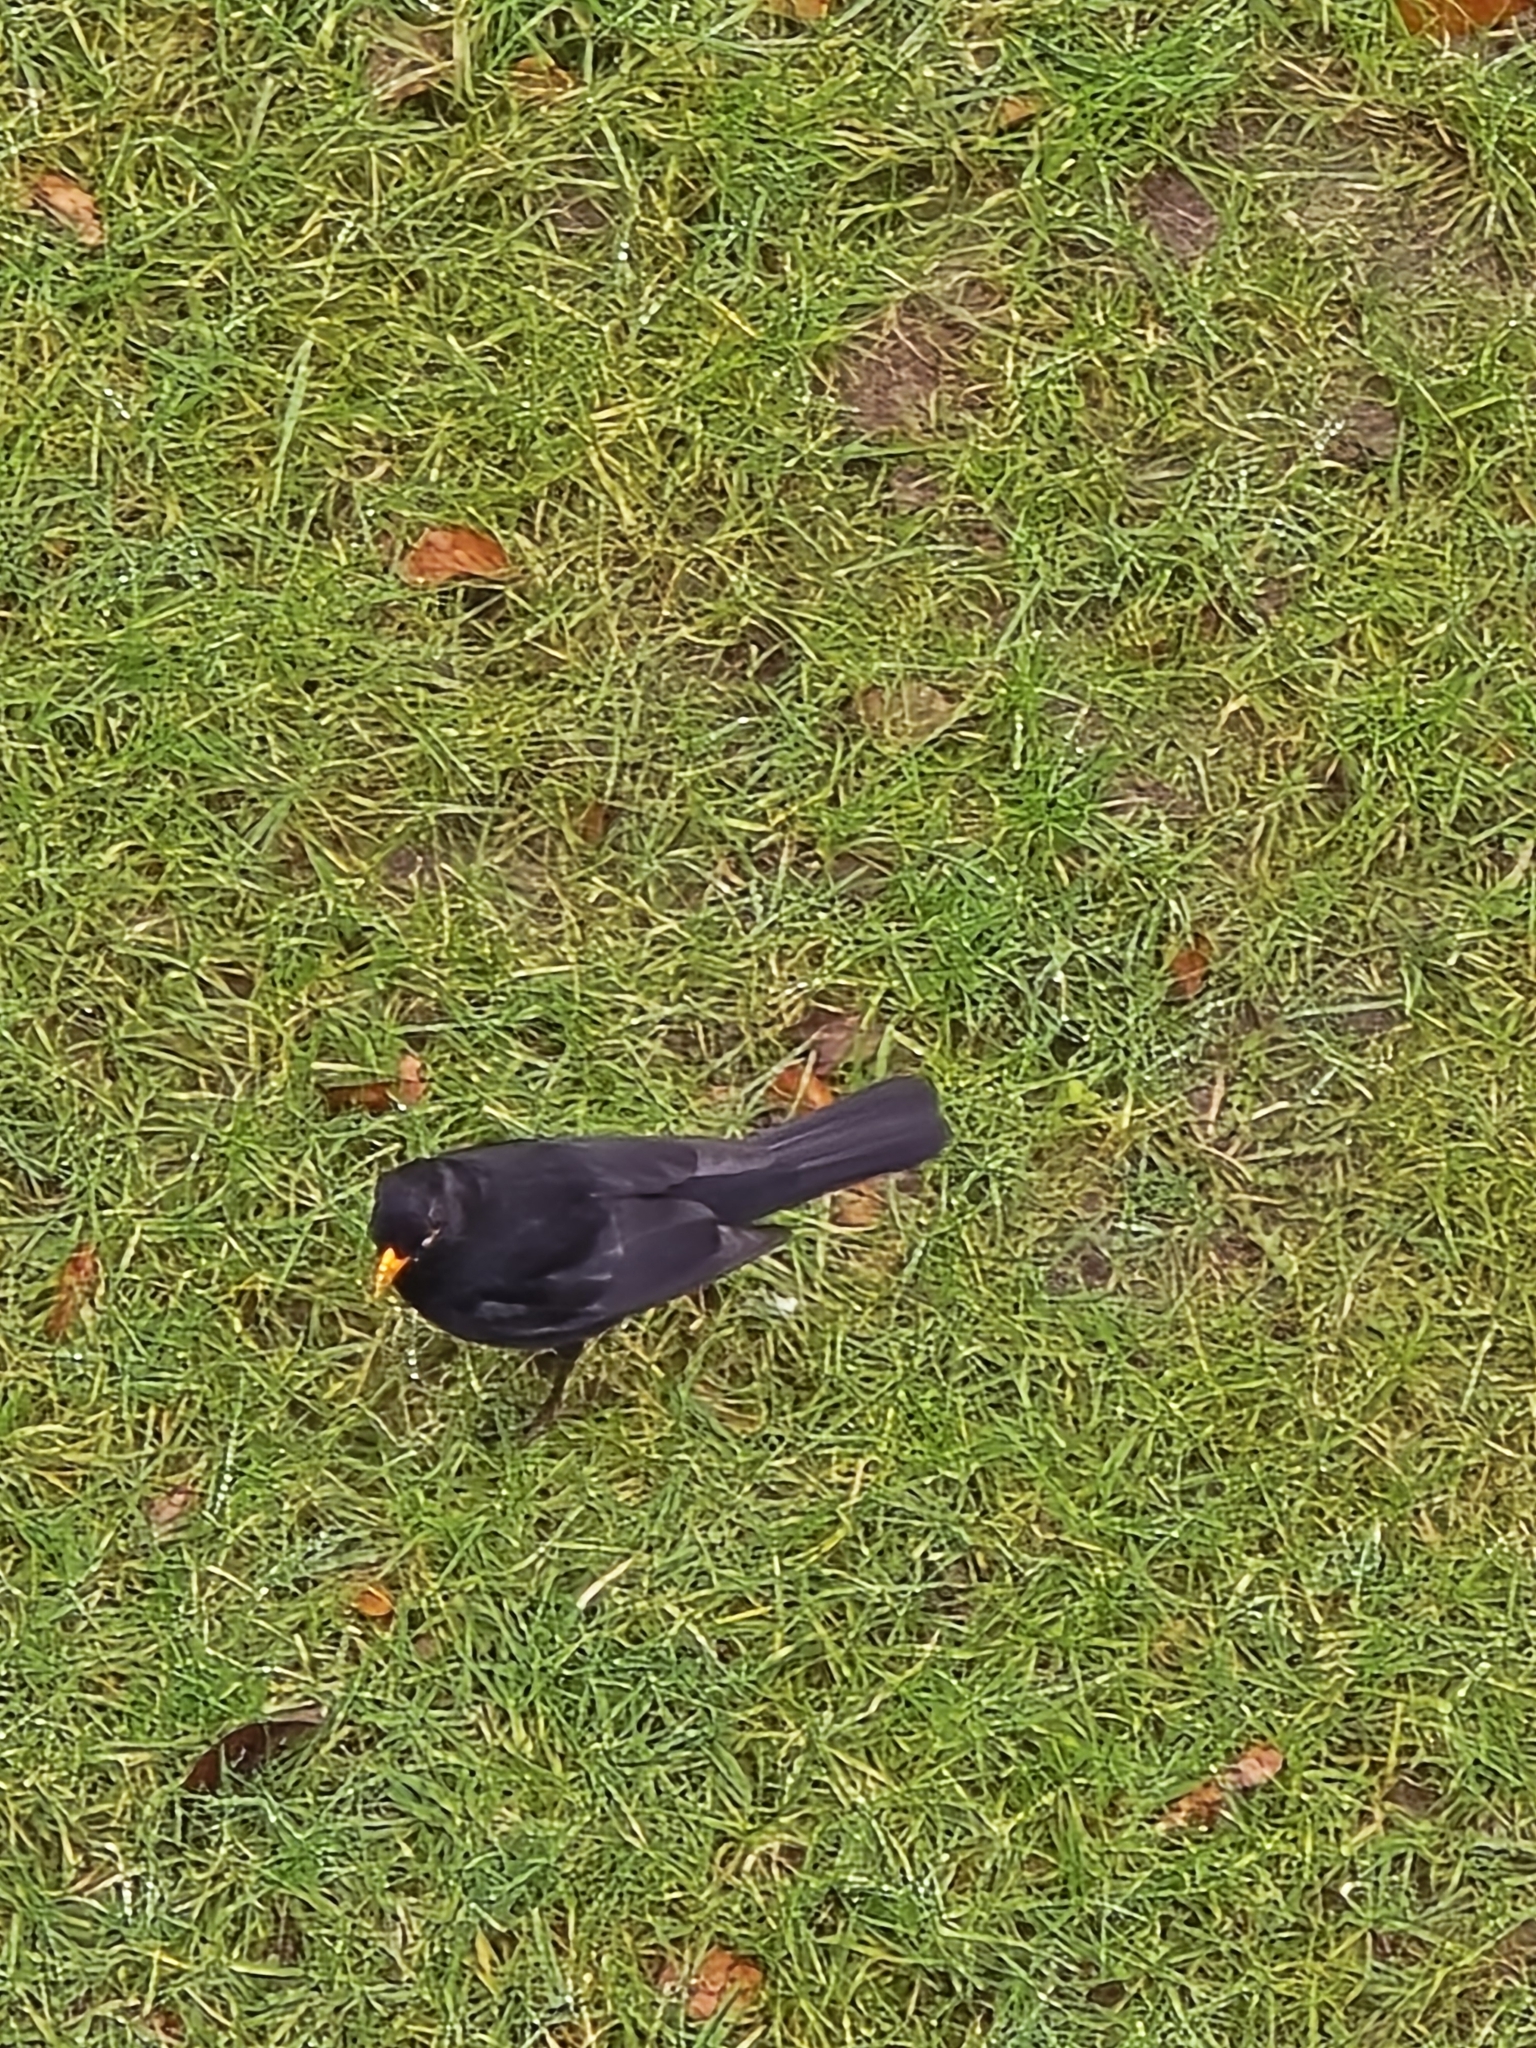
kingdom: Animalia
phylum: Chordata
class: Aves
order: Passeriformes
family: Turdidae
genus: Turdus
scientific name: Turdus merula
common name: Common blackbird
